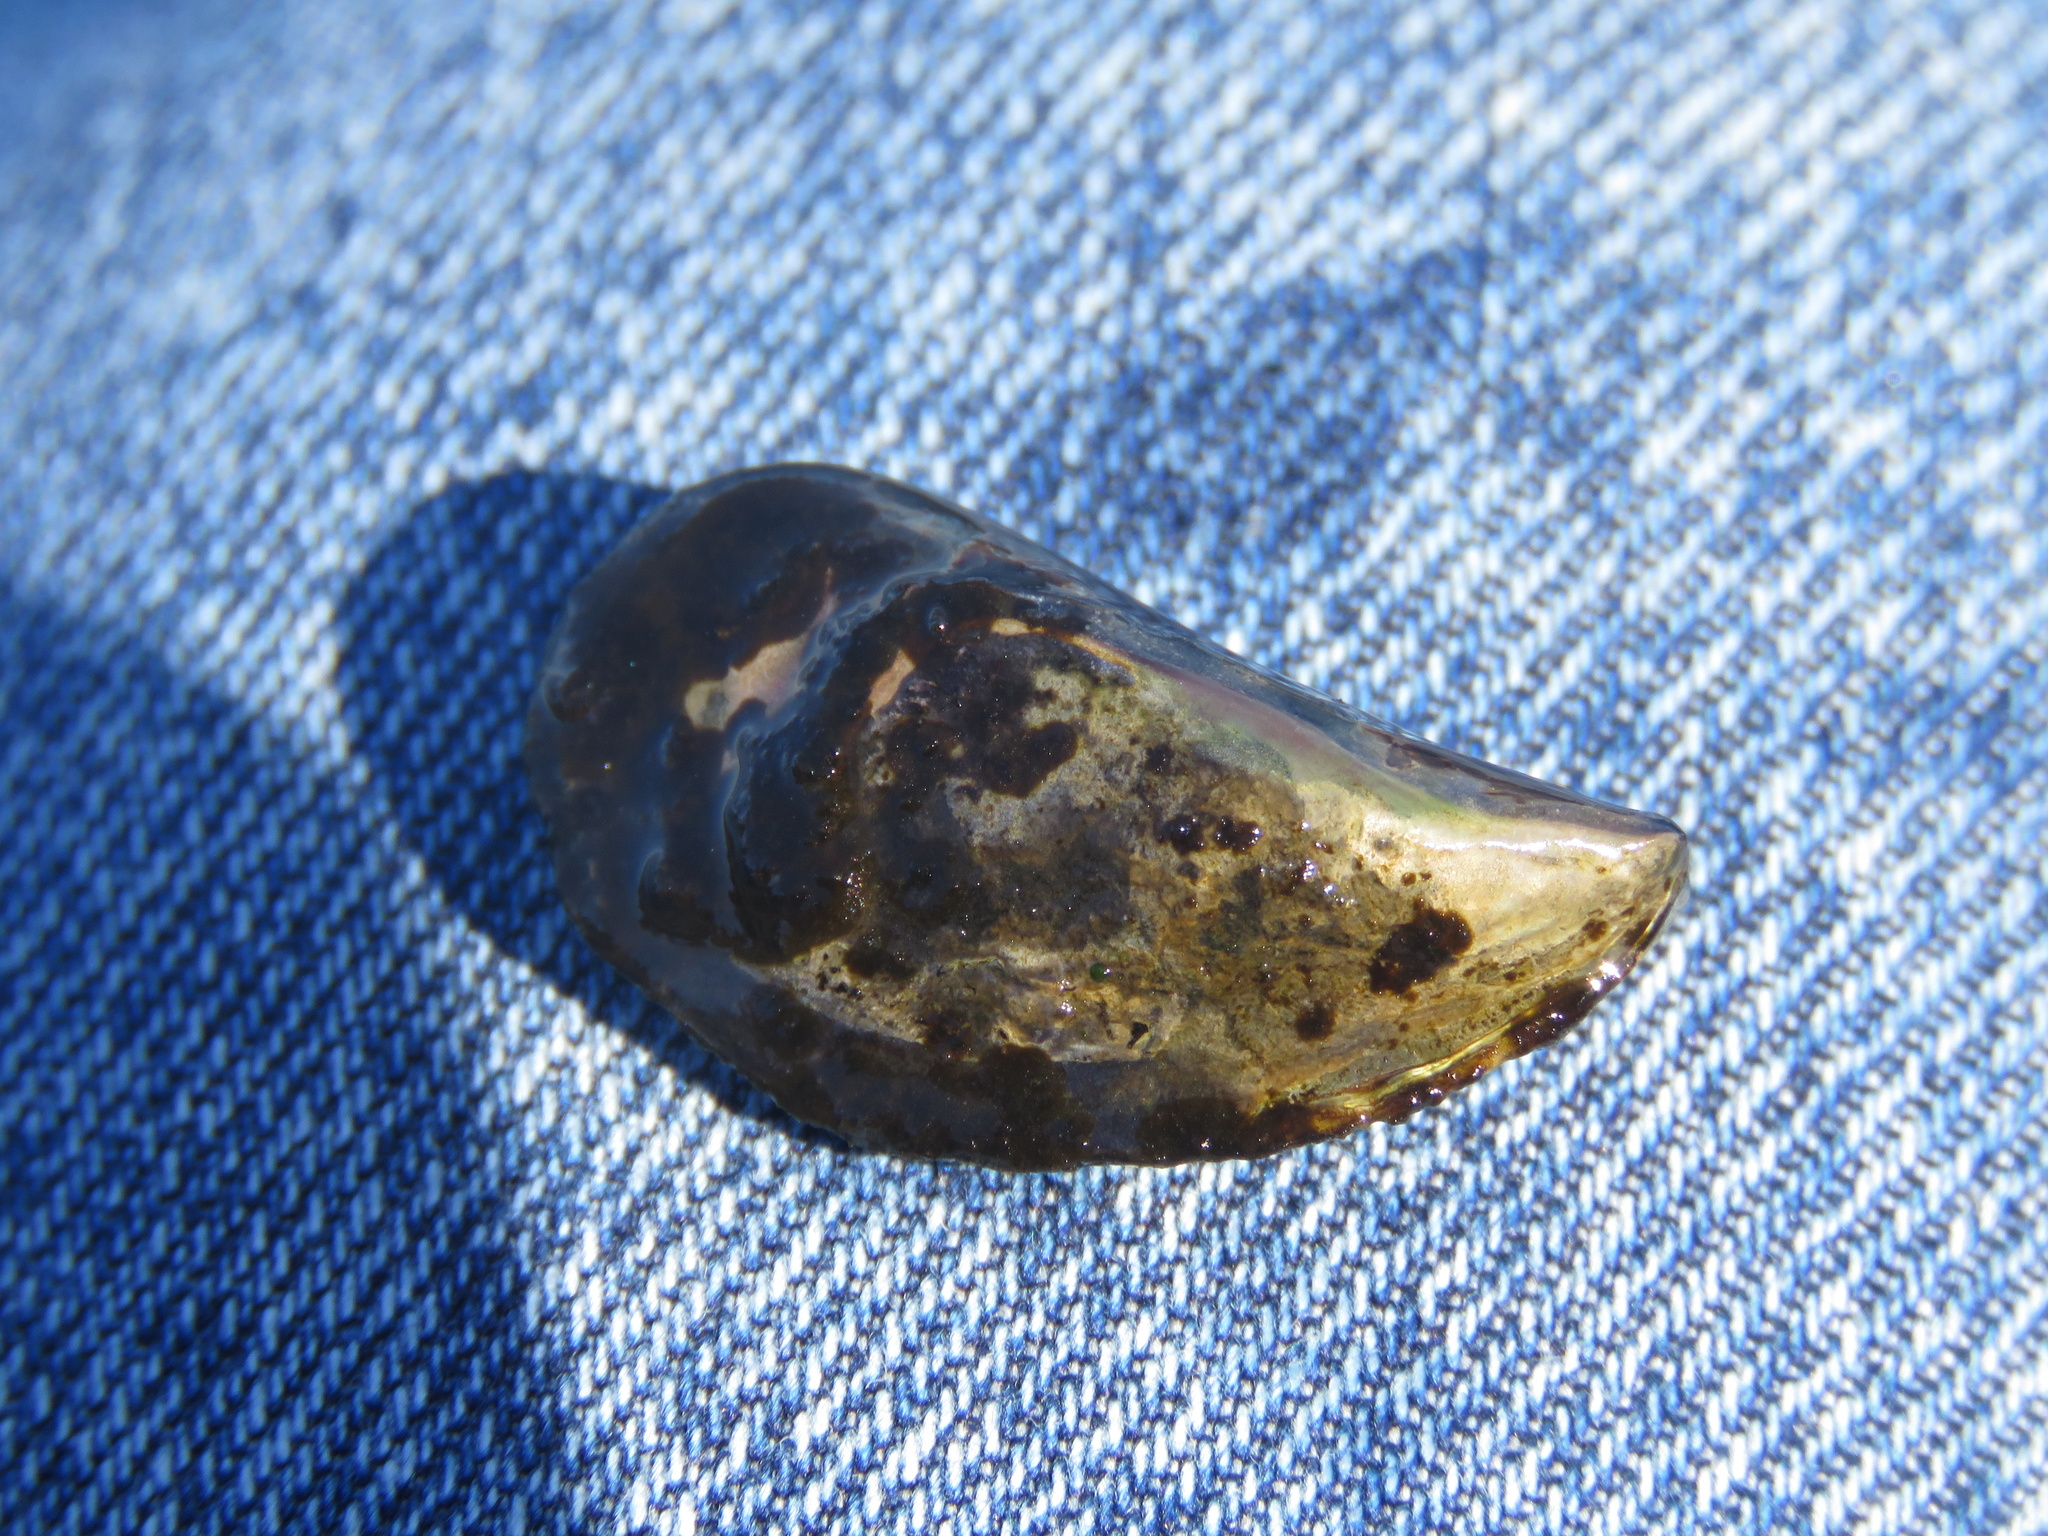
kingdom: Animalia
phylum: Mollusca
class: Bivalvia
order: Mytilida
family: Mytilidae
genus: Mytilus
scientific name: Mytilus
